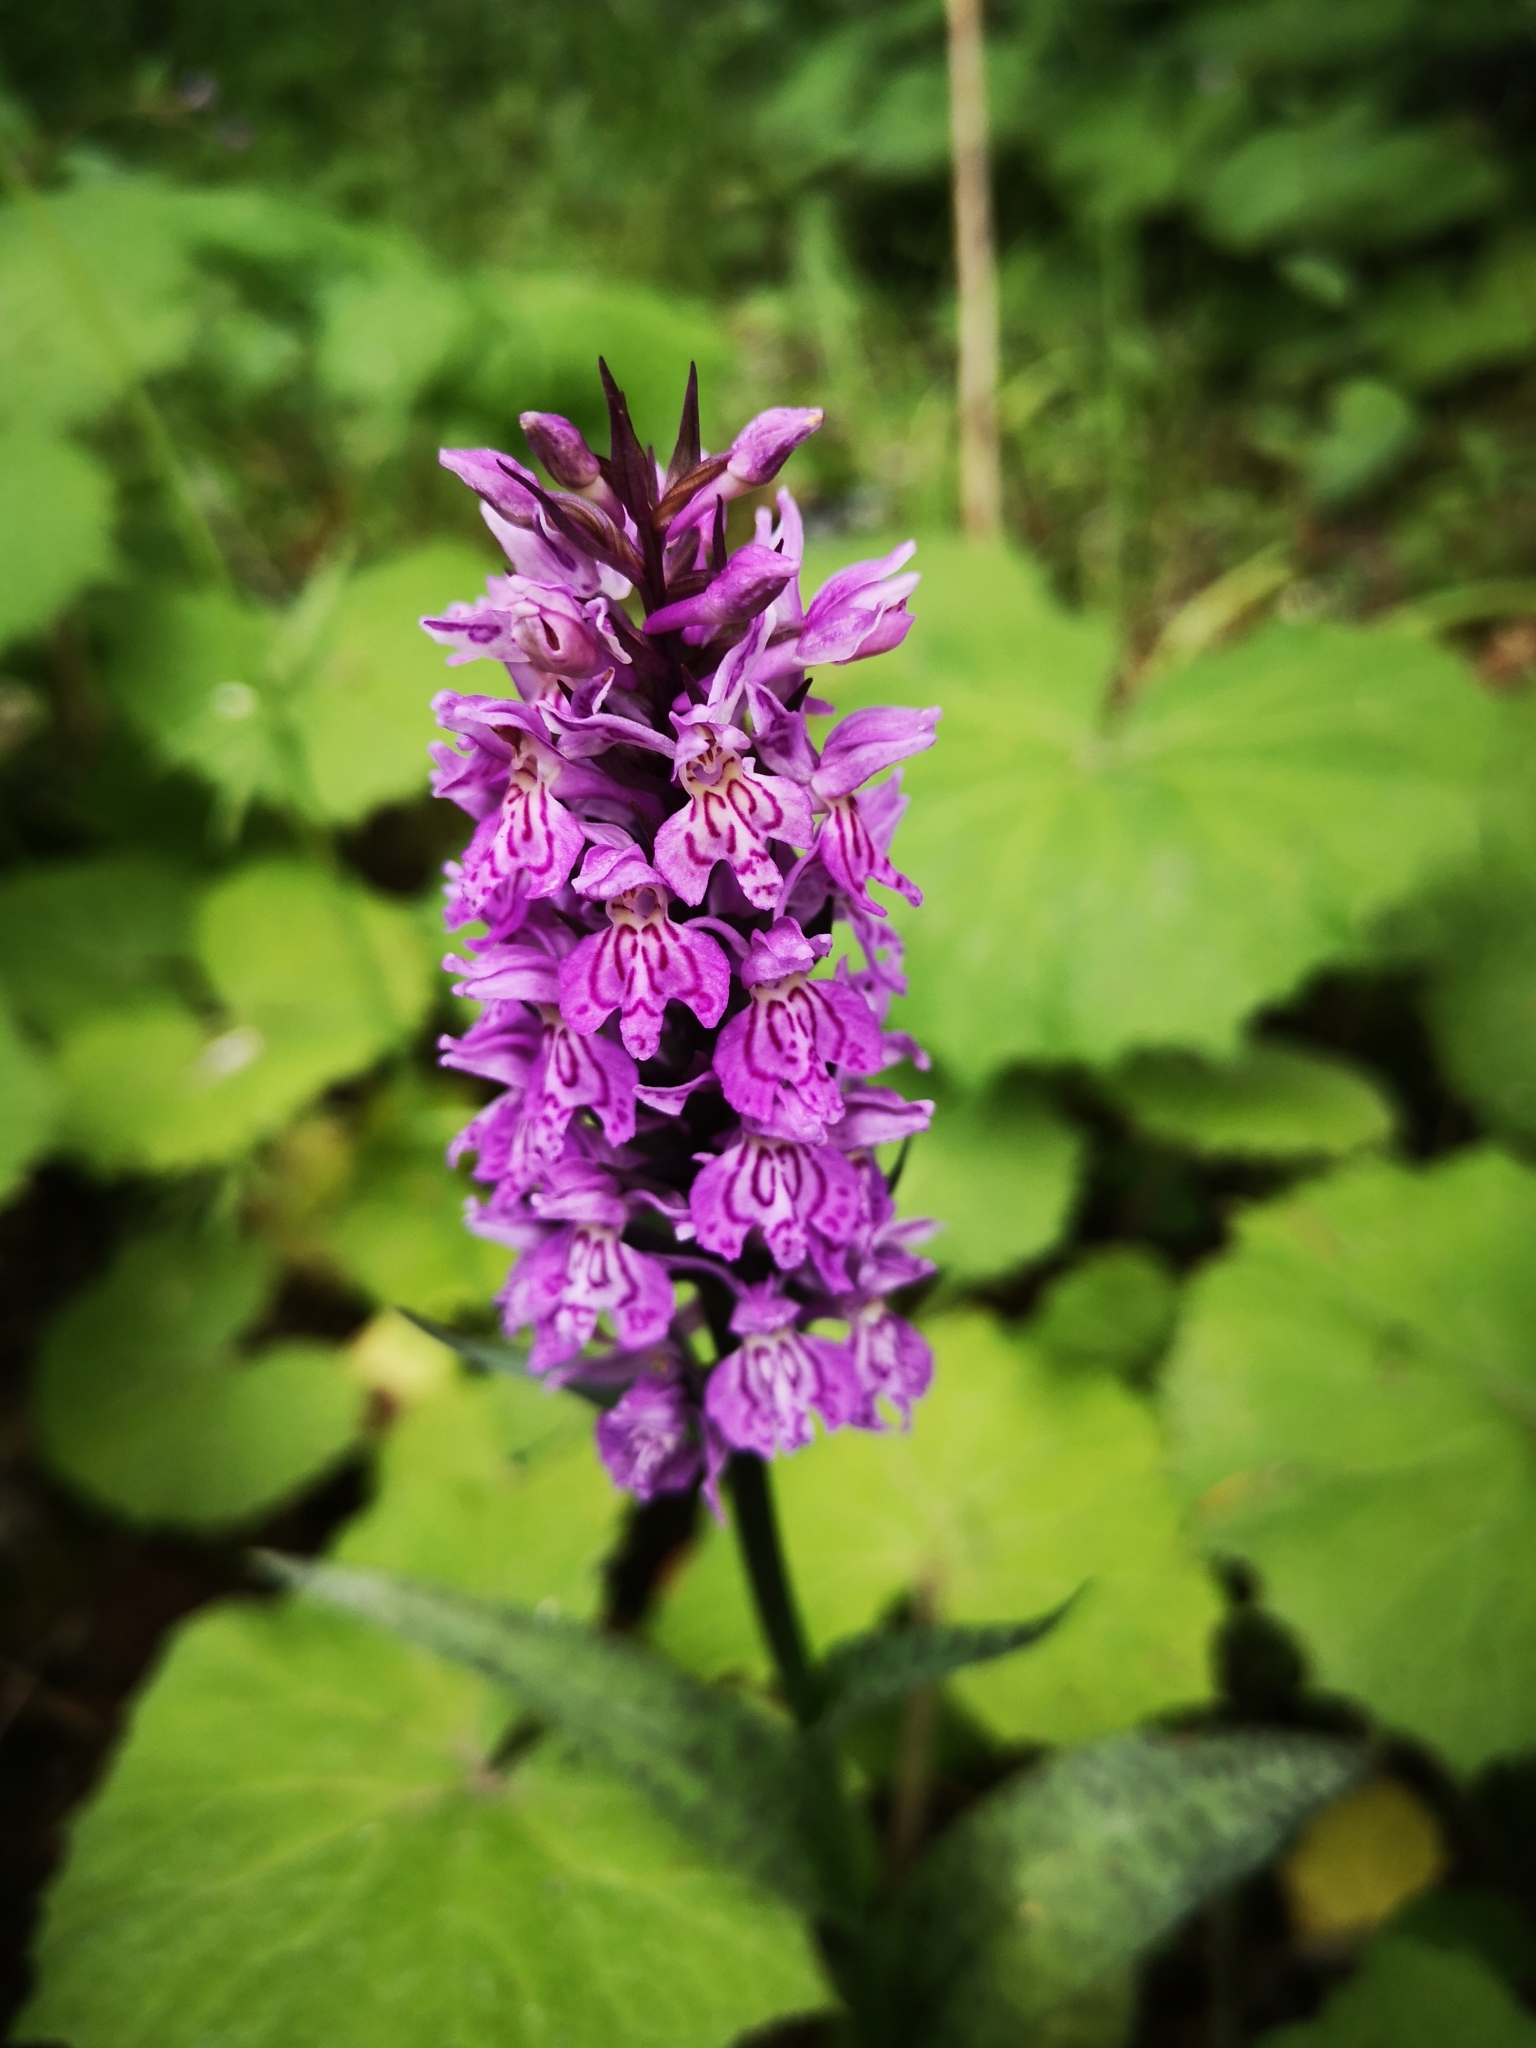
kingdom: Plantae
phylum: Tracheophyta
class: Liliopsida
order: Asparagales
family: Orchidaceae
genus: Dactylorhiza
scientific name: Dactylorhiza maculata
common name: Heath spotted-orchid
